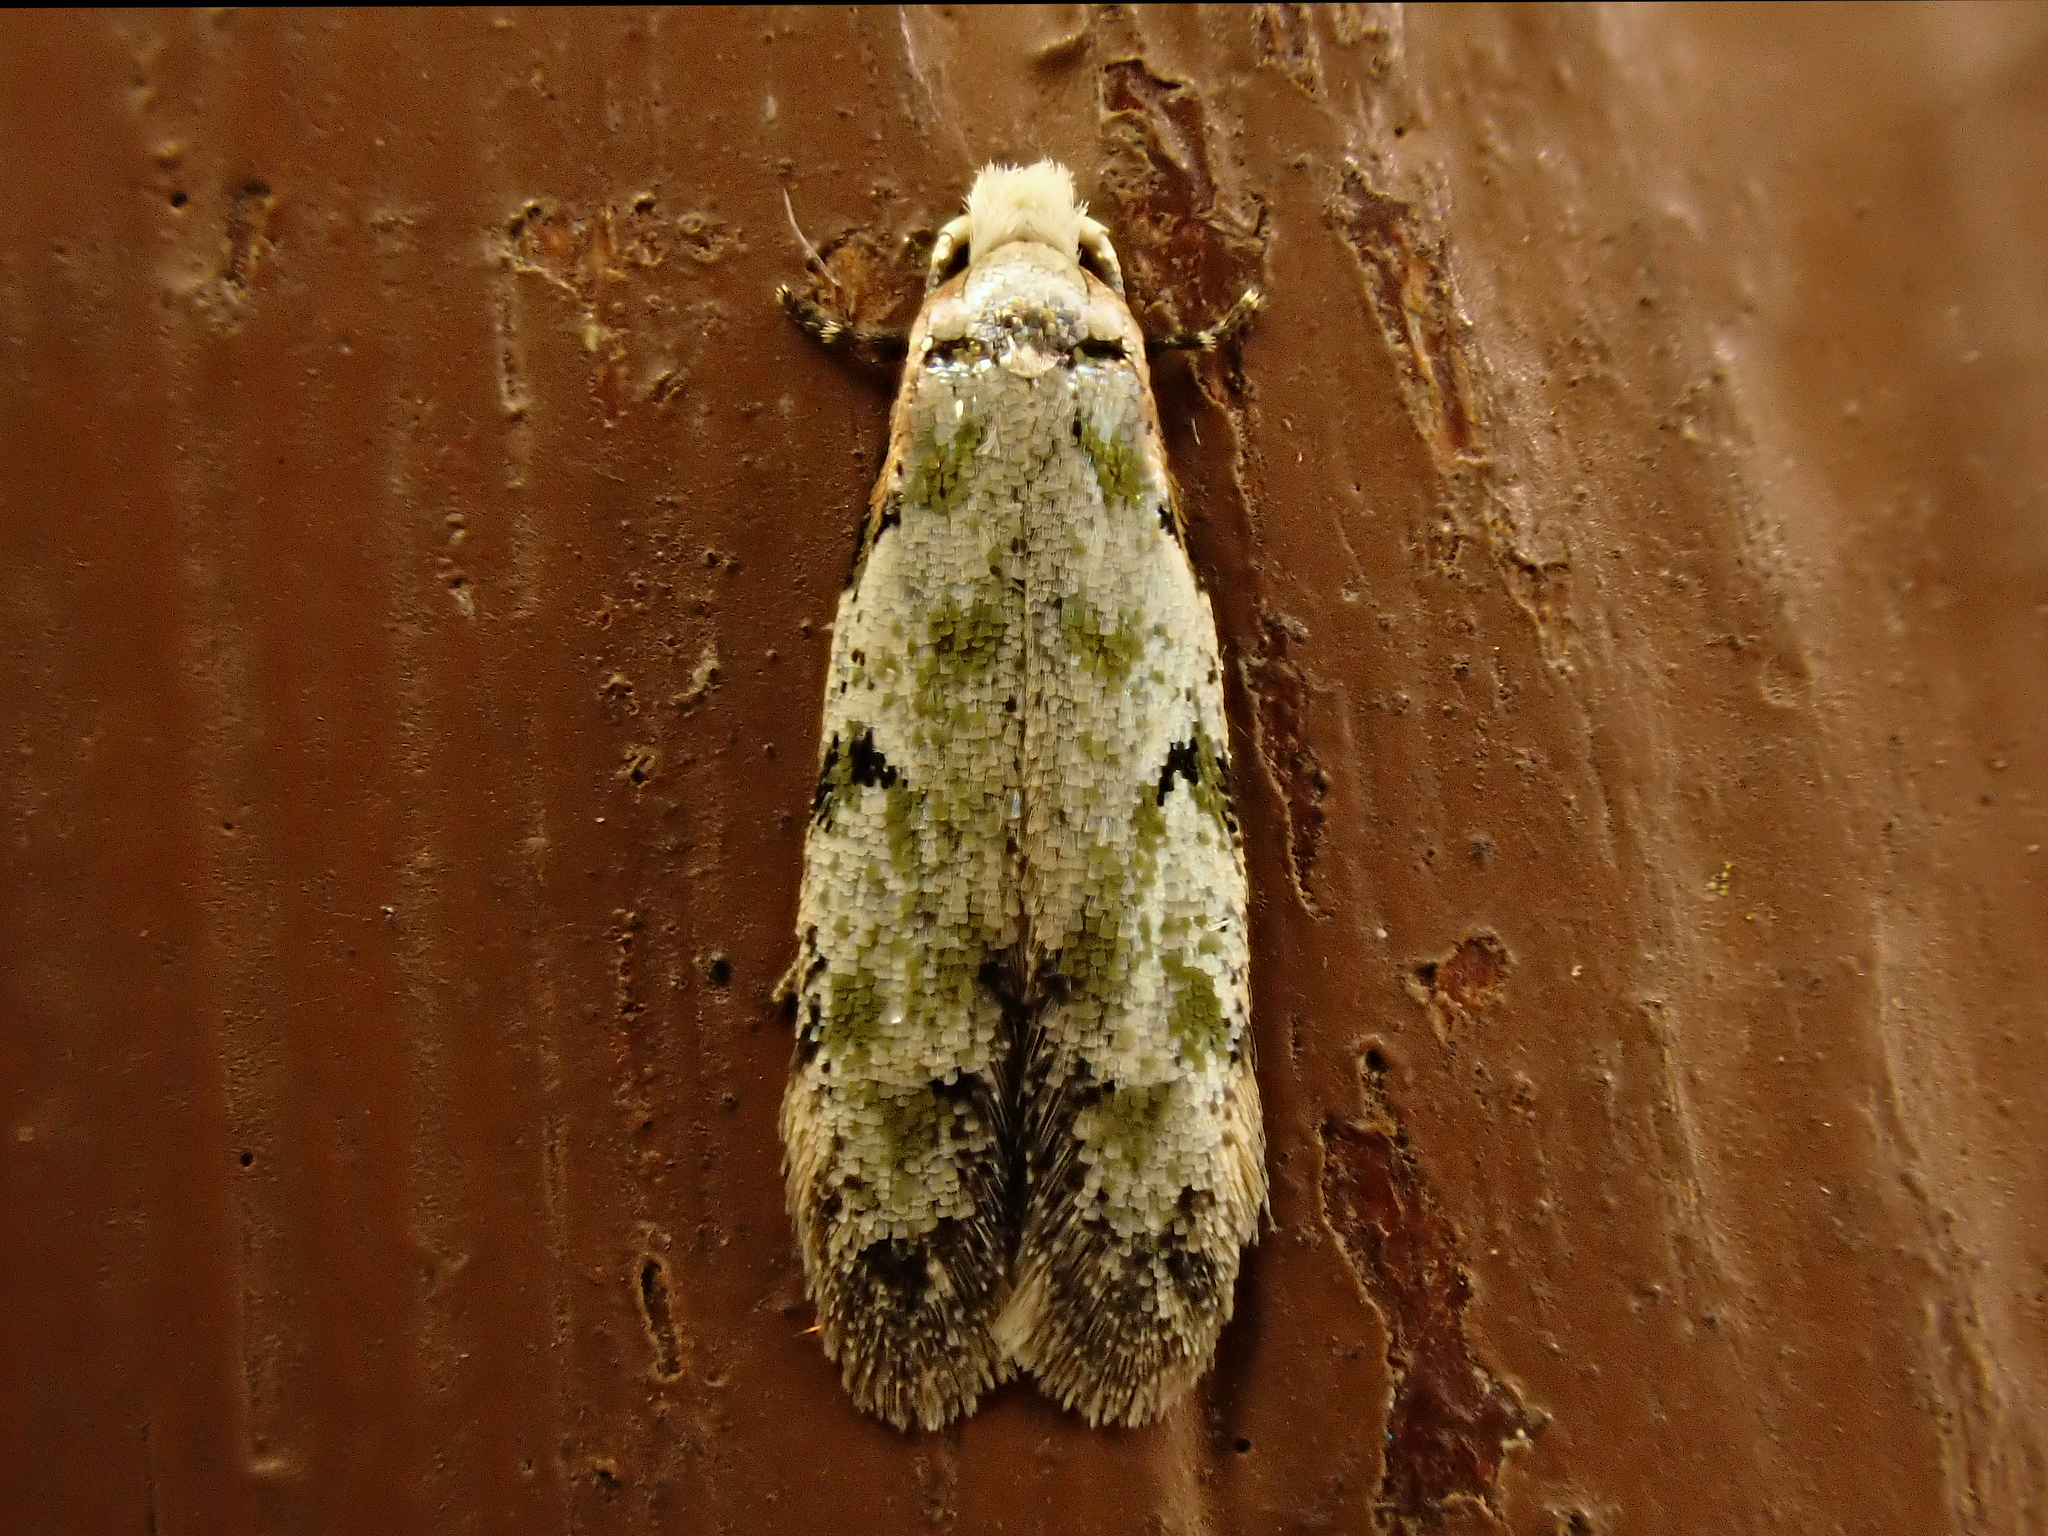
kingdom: Animalia
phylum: Arthropoda
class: Insecta
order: Lepidoptera
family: Tineidae
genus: Endophthora
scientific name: Endophthora pallacopis
